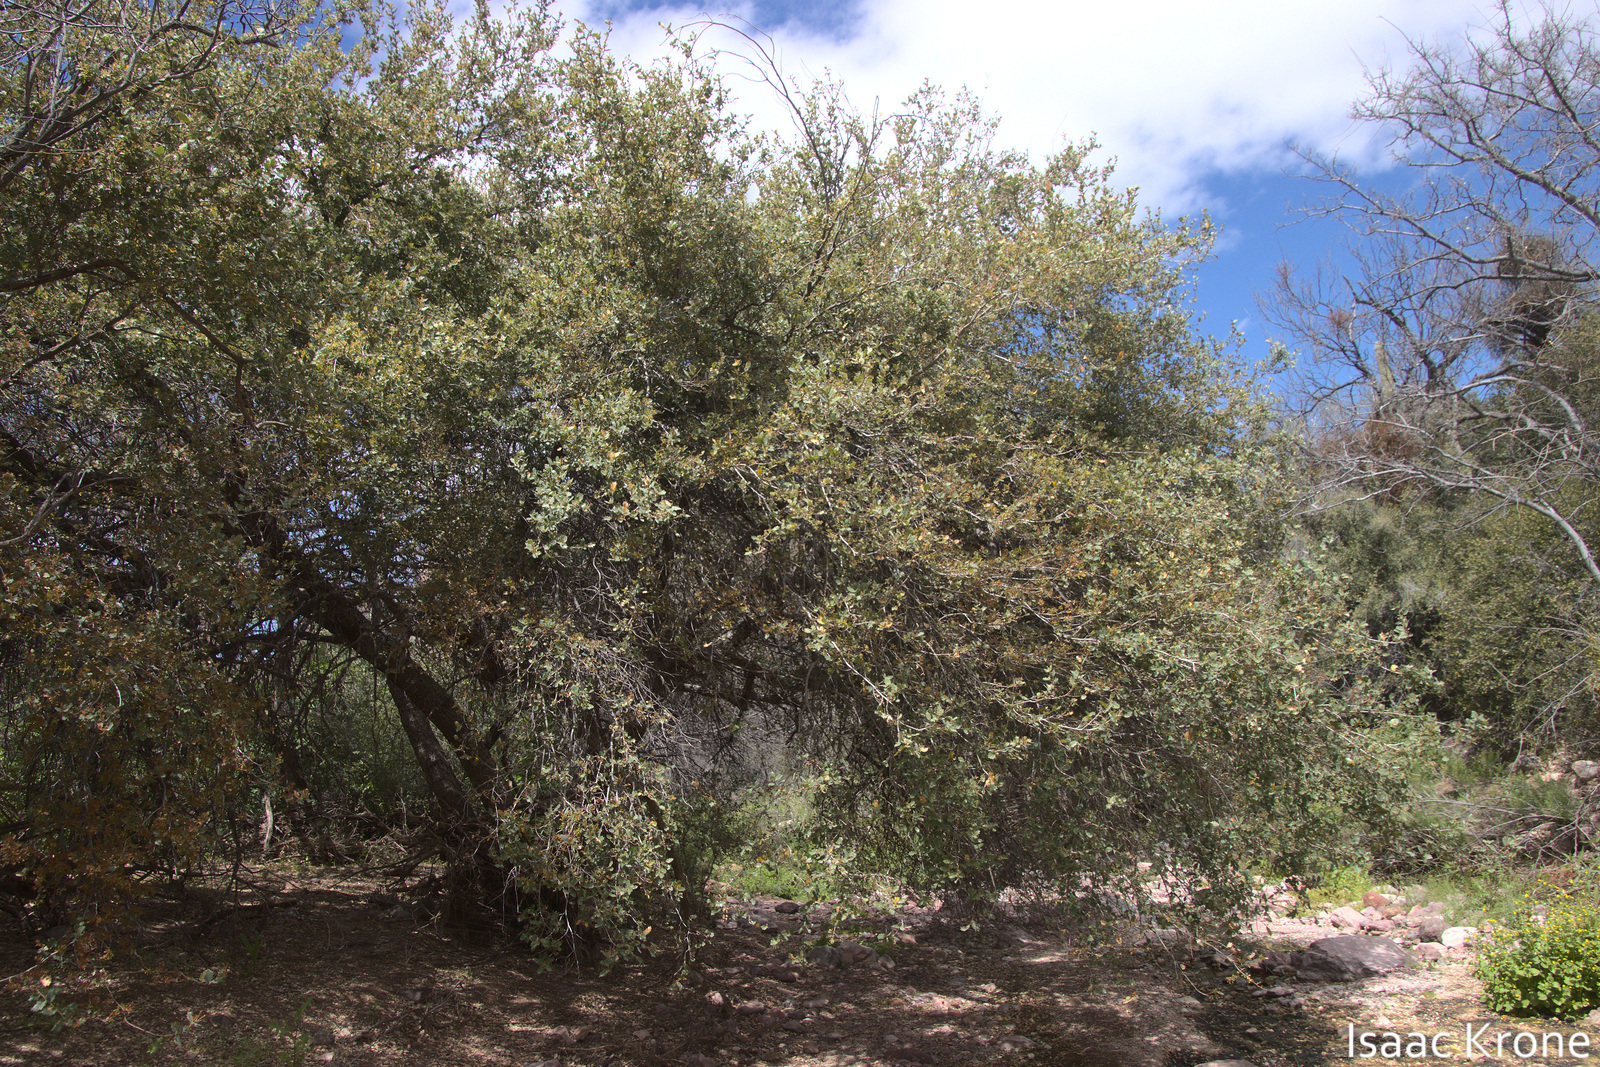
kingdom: Plantae
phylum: Tracheophyta
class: Magnoliopsida
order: Fagales
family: Fagaceae
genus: Quercus
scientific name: Quercus ajoensis
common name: Ajo mountain scrub oak
